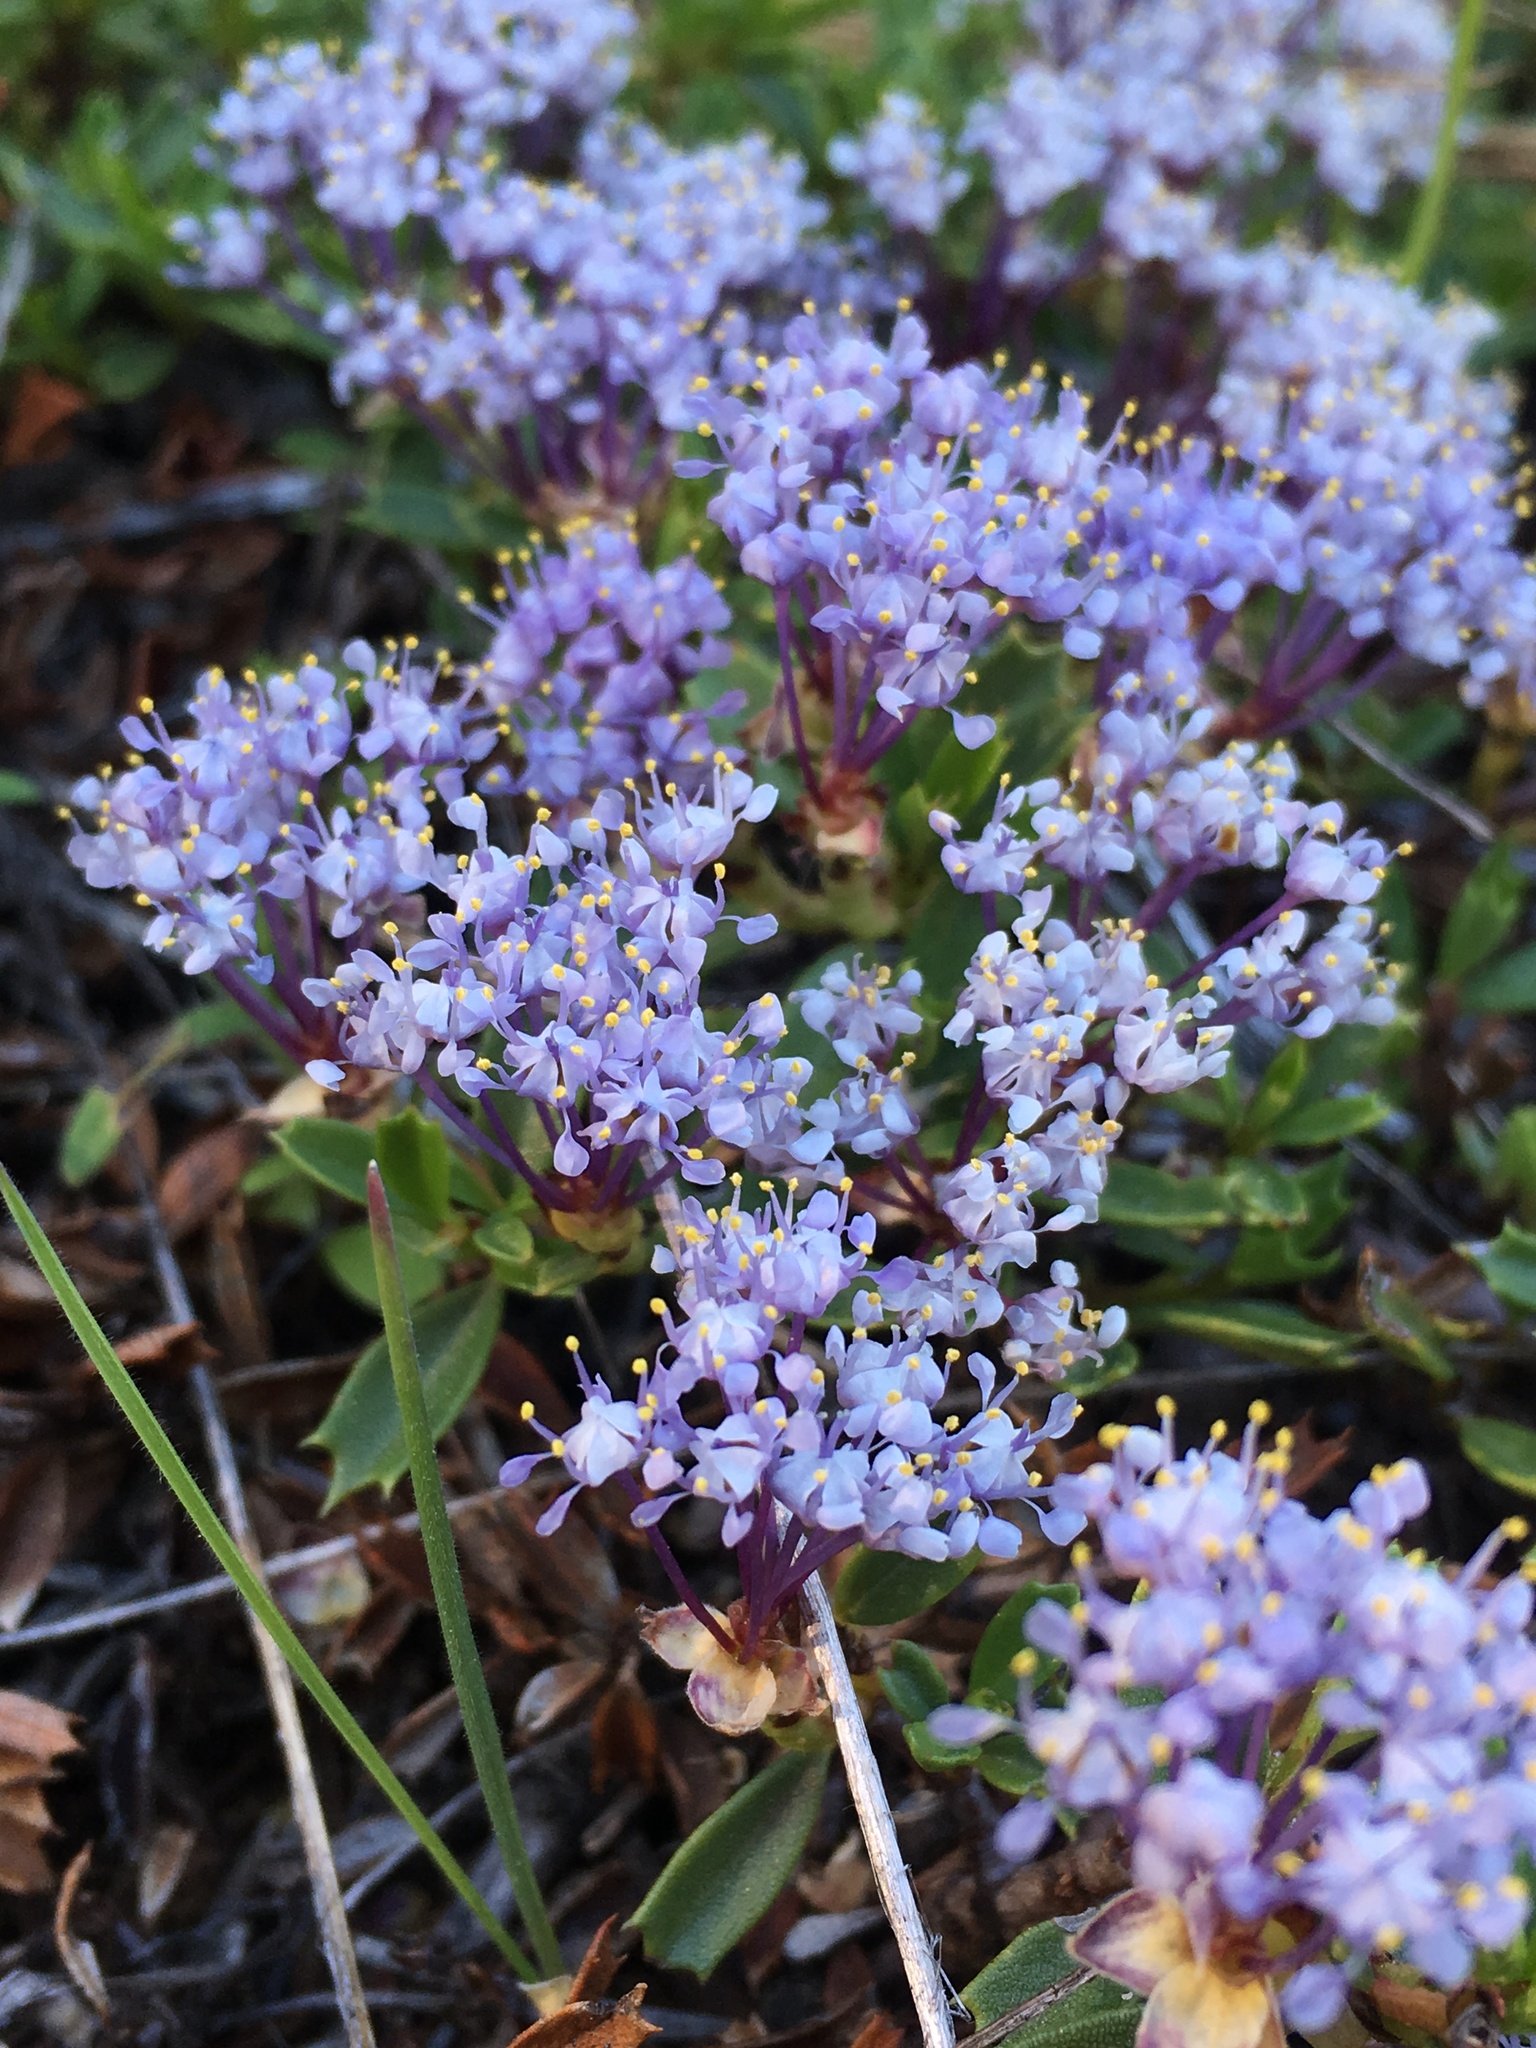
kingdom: Plantae
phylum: Tracheophyta
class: Magnoliopsida
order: Rosales
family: Rhamnaceae
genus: Ceanothus
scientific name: Ceanothus prostratus
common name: Mahala-mat
